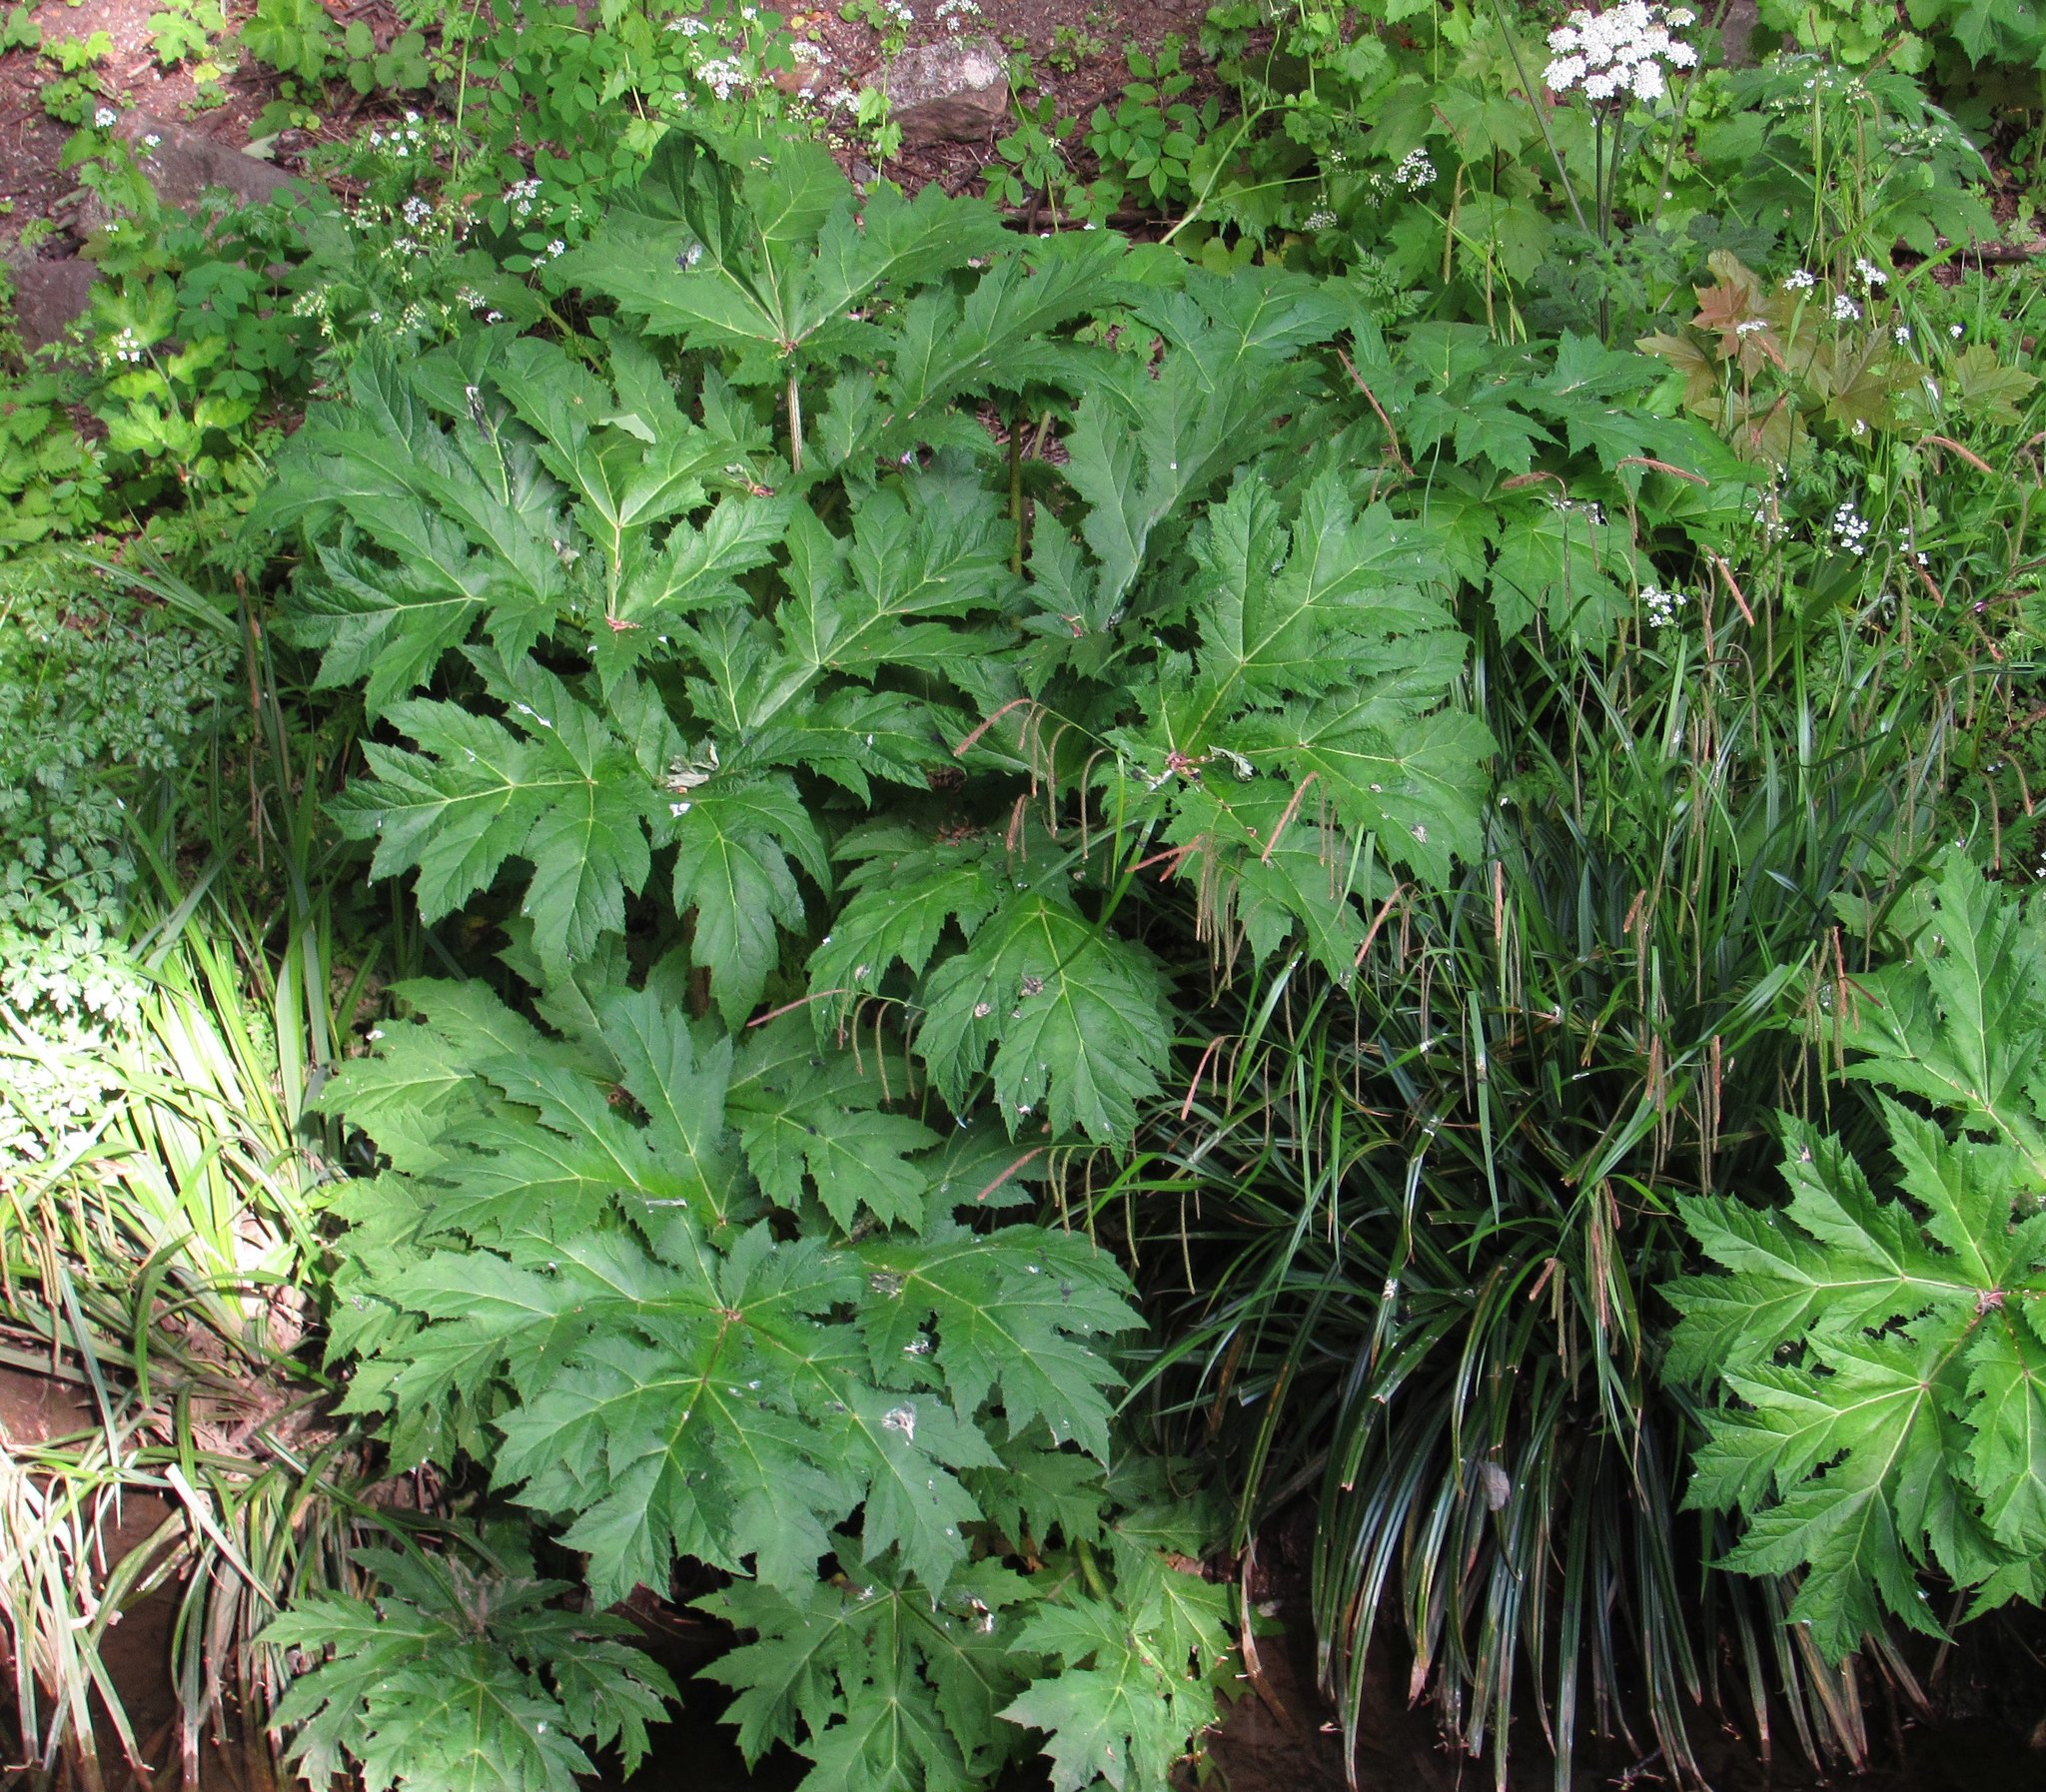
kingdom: Plantae
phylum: Tracheophyta
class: Magnoliopsida
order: Apiales
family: Apiaceae
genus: Heracleum
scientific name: Heracleum mantegazzianum
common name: Giant hogweed
